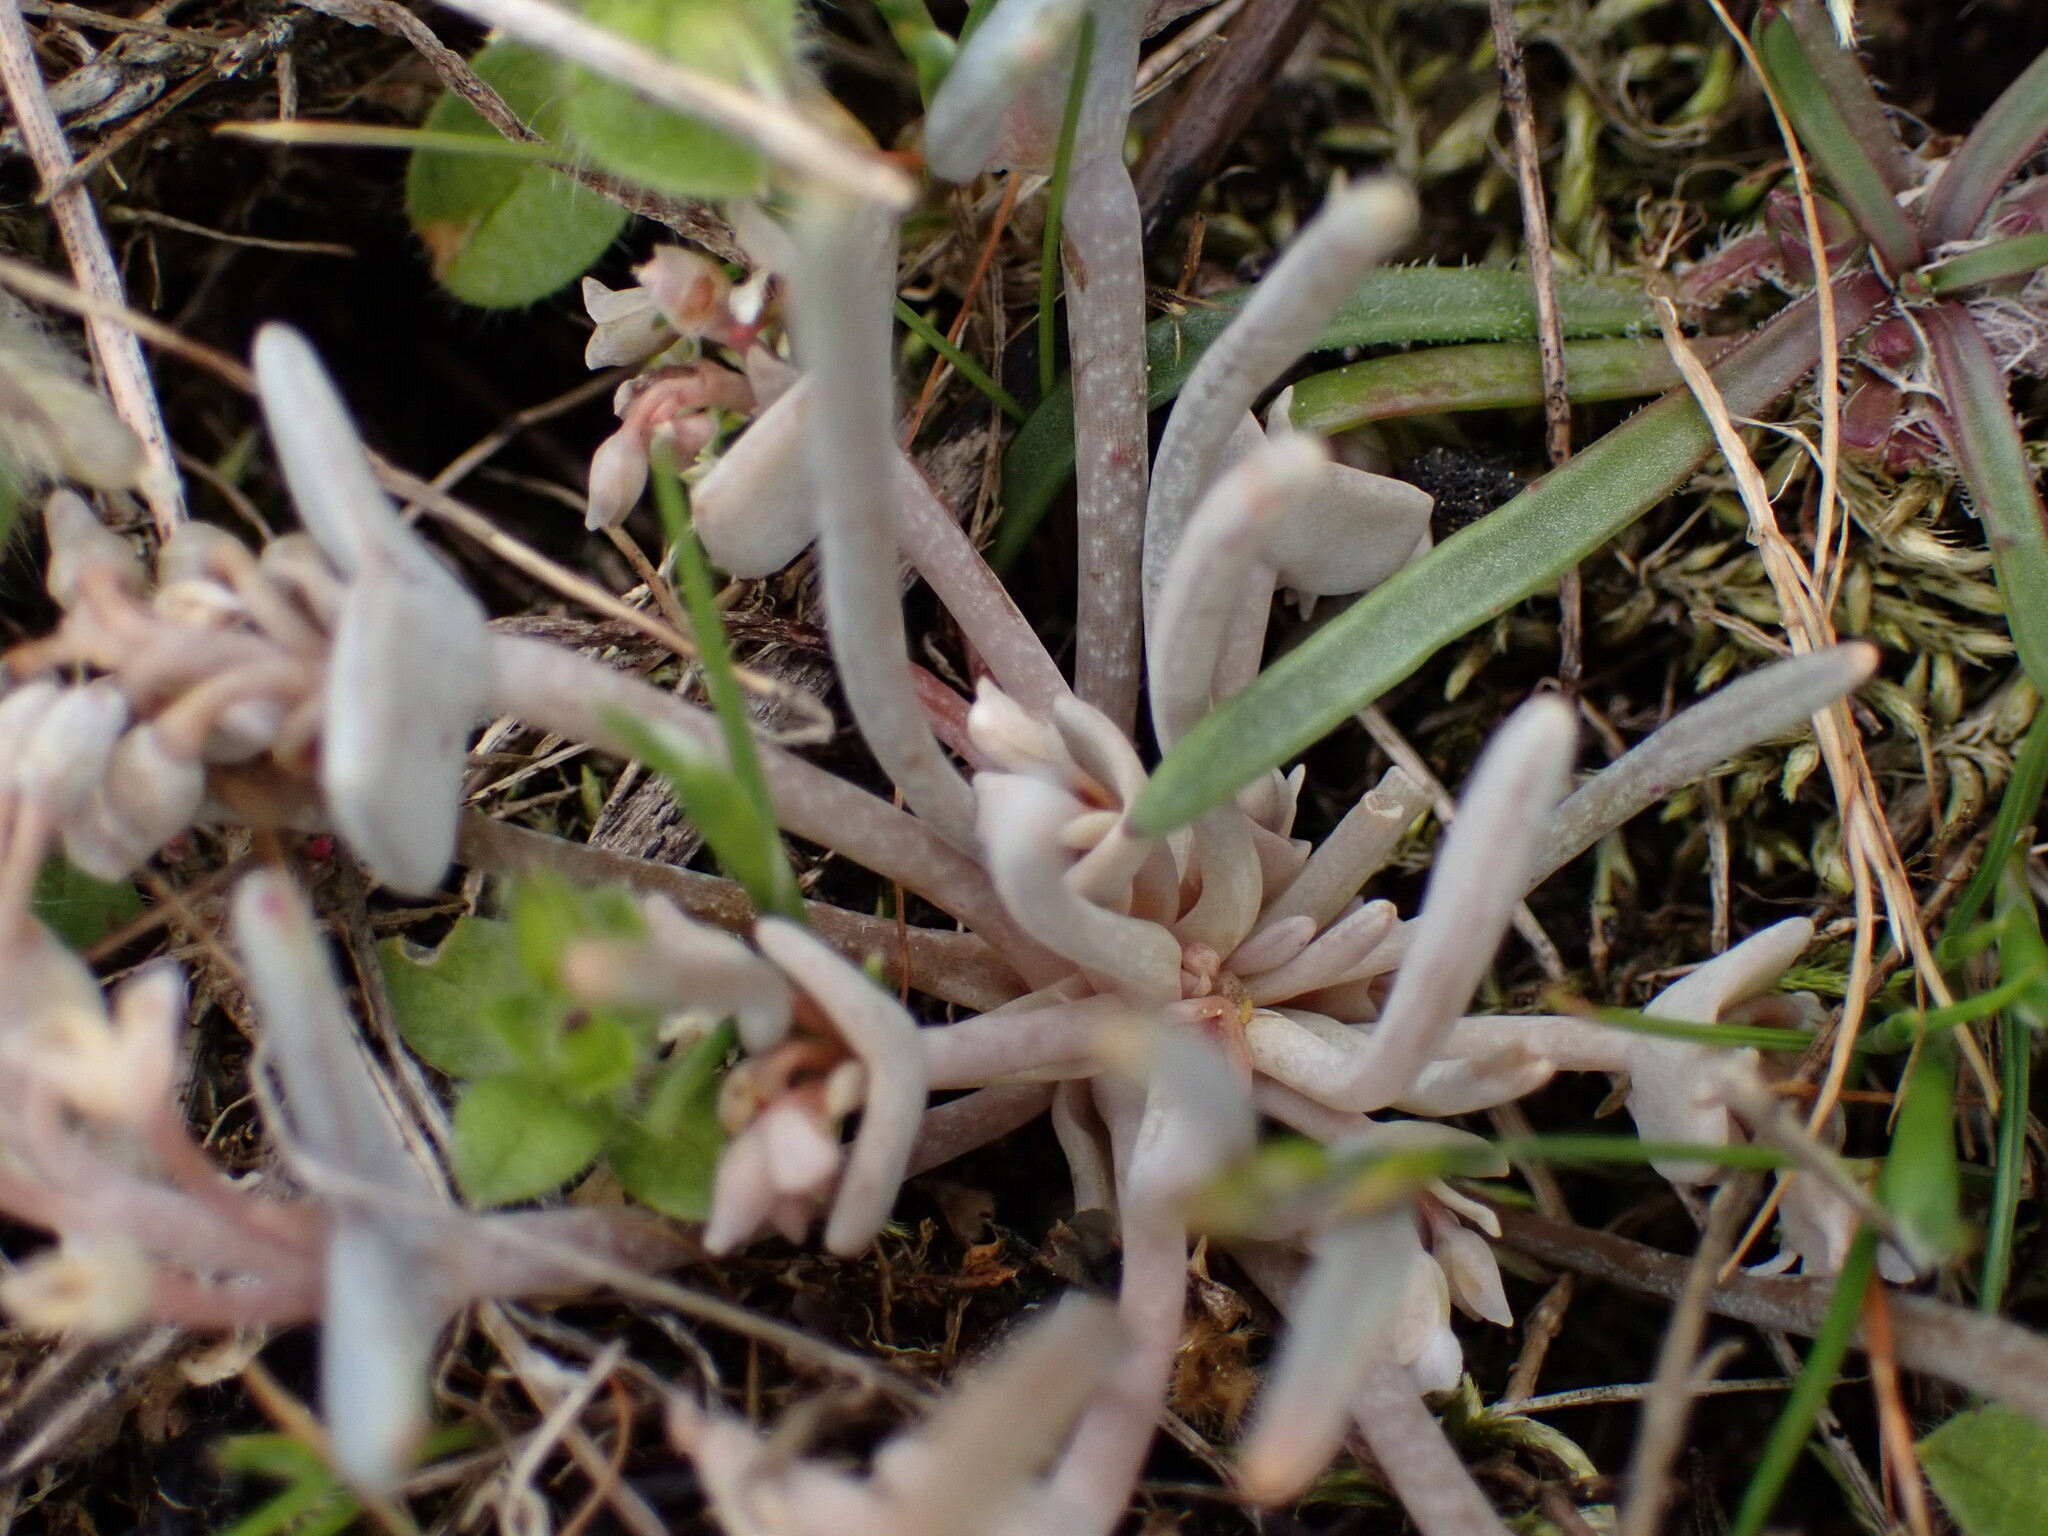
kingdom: Plantae
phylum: Tracheophyta
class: Magnoliopsida
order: Caryophyllales
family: Montiaceae
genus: Claytonia
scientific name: Claytonia exigua
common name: Pale spring beauty
